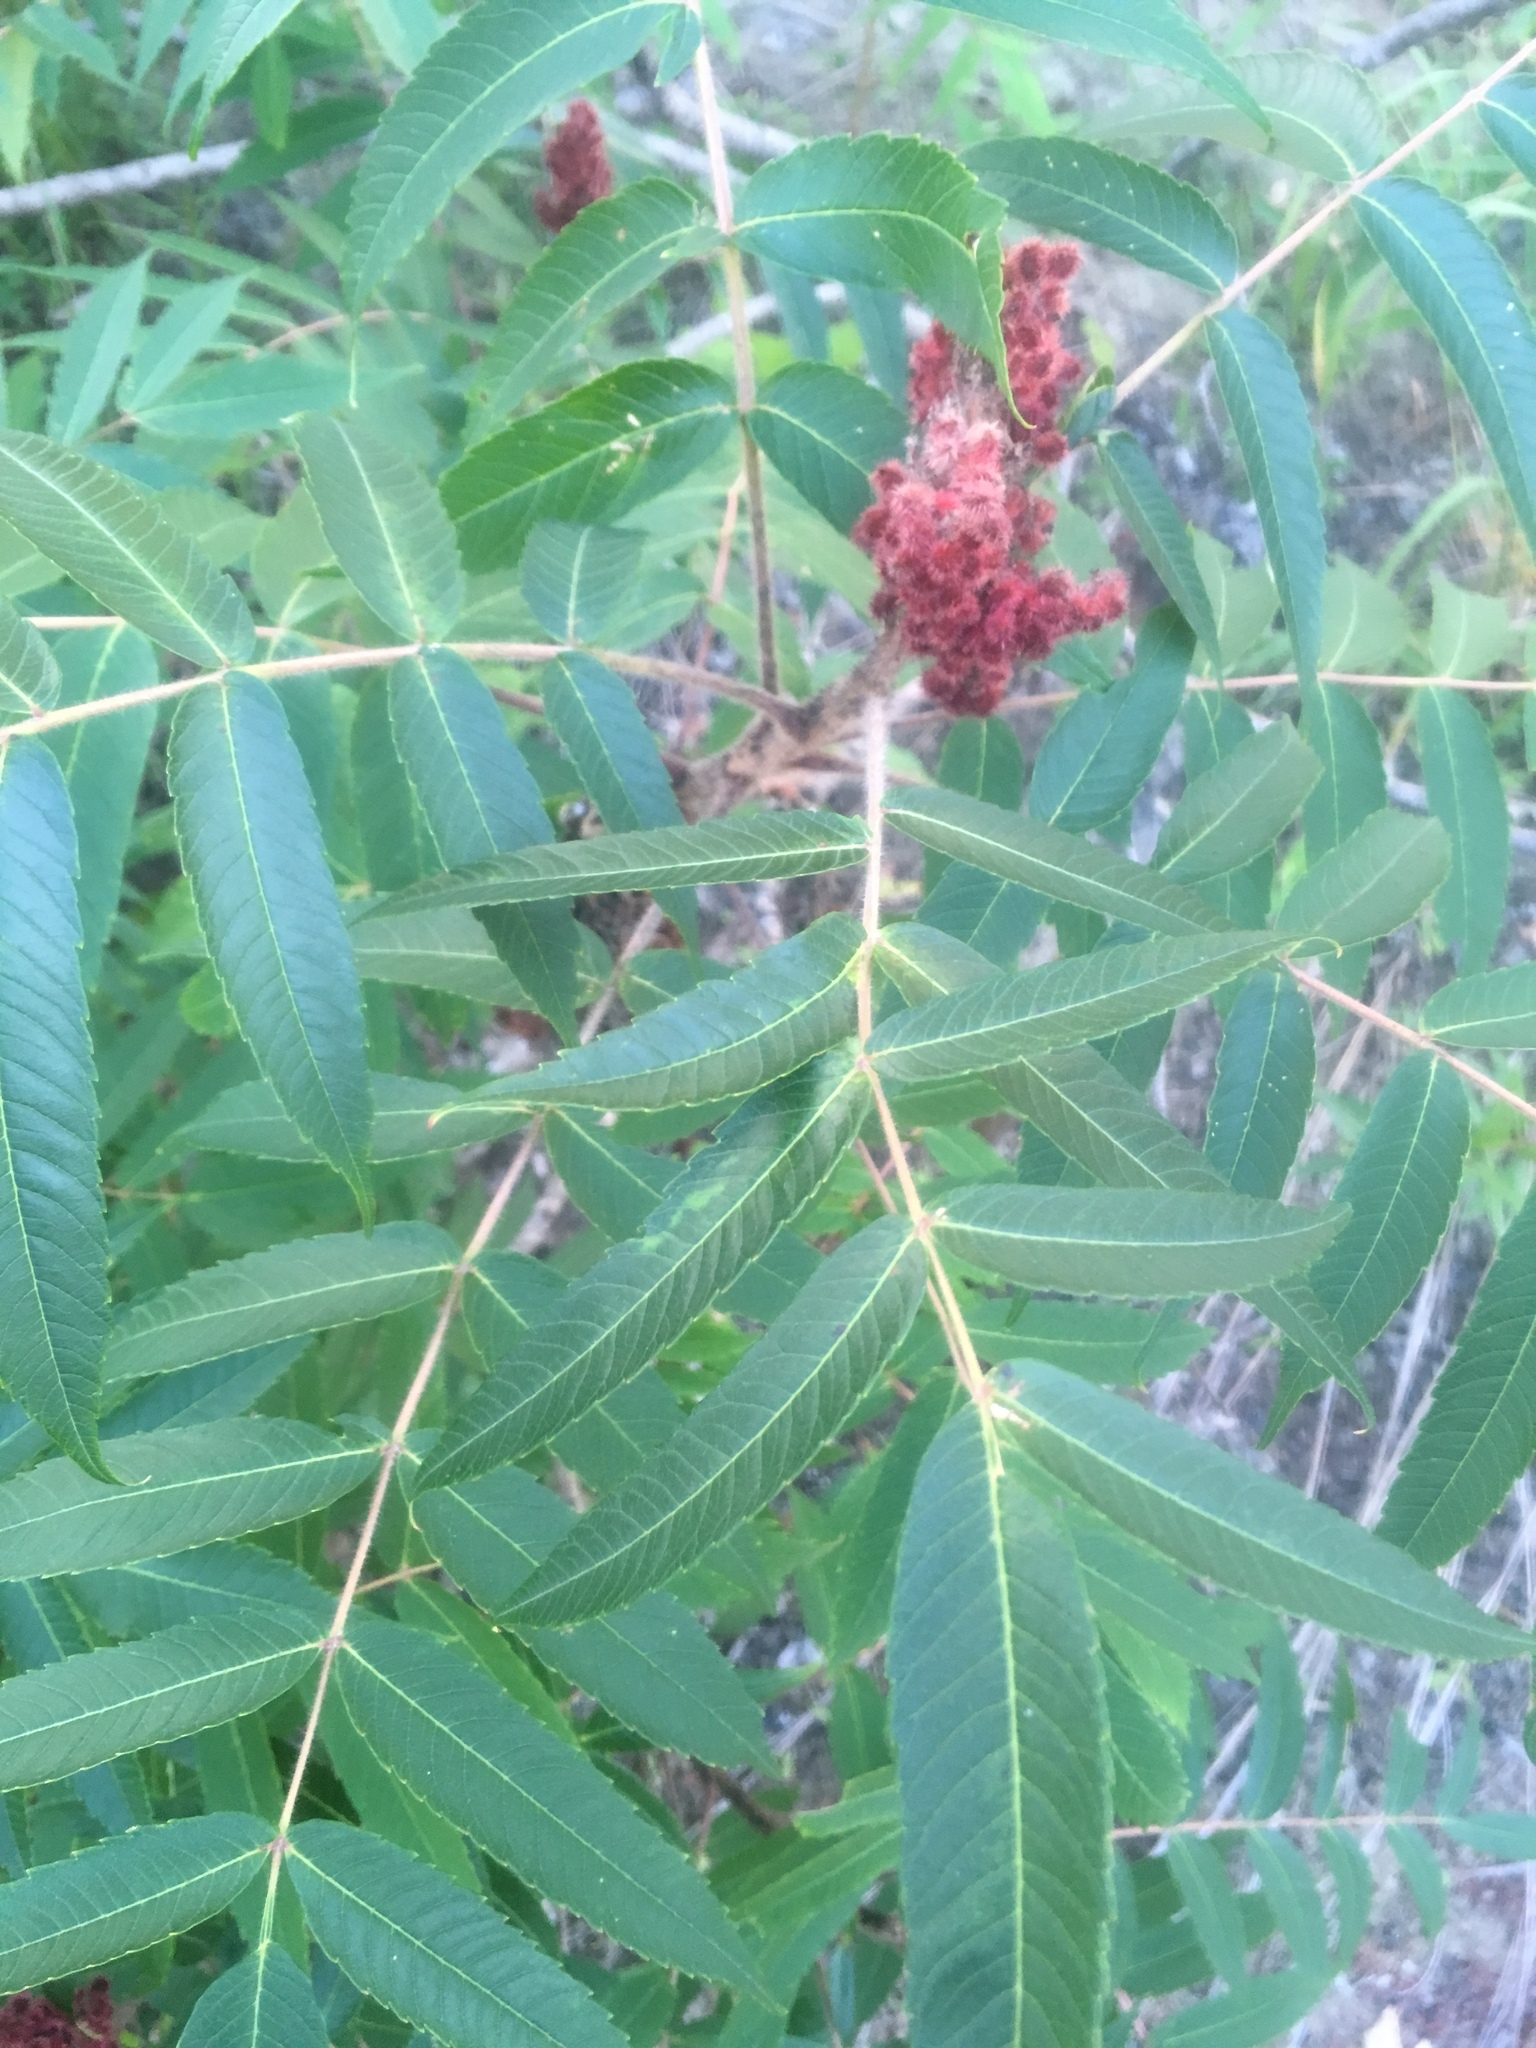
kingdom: Plantae
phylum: Tracheophyta
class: Magnoliopsida
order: Sapindales
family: Anacardiaceae
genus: Rhus
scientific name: Rhus typhina
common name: Staghorn sumac
